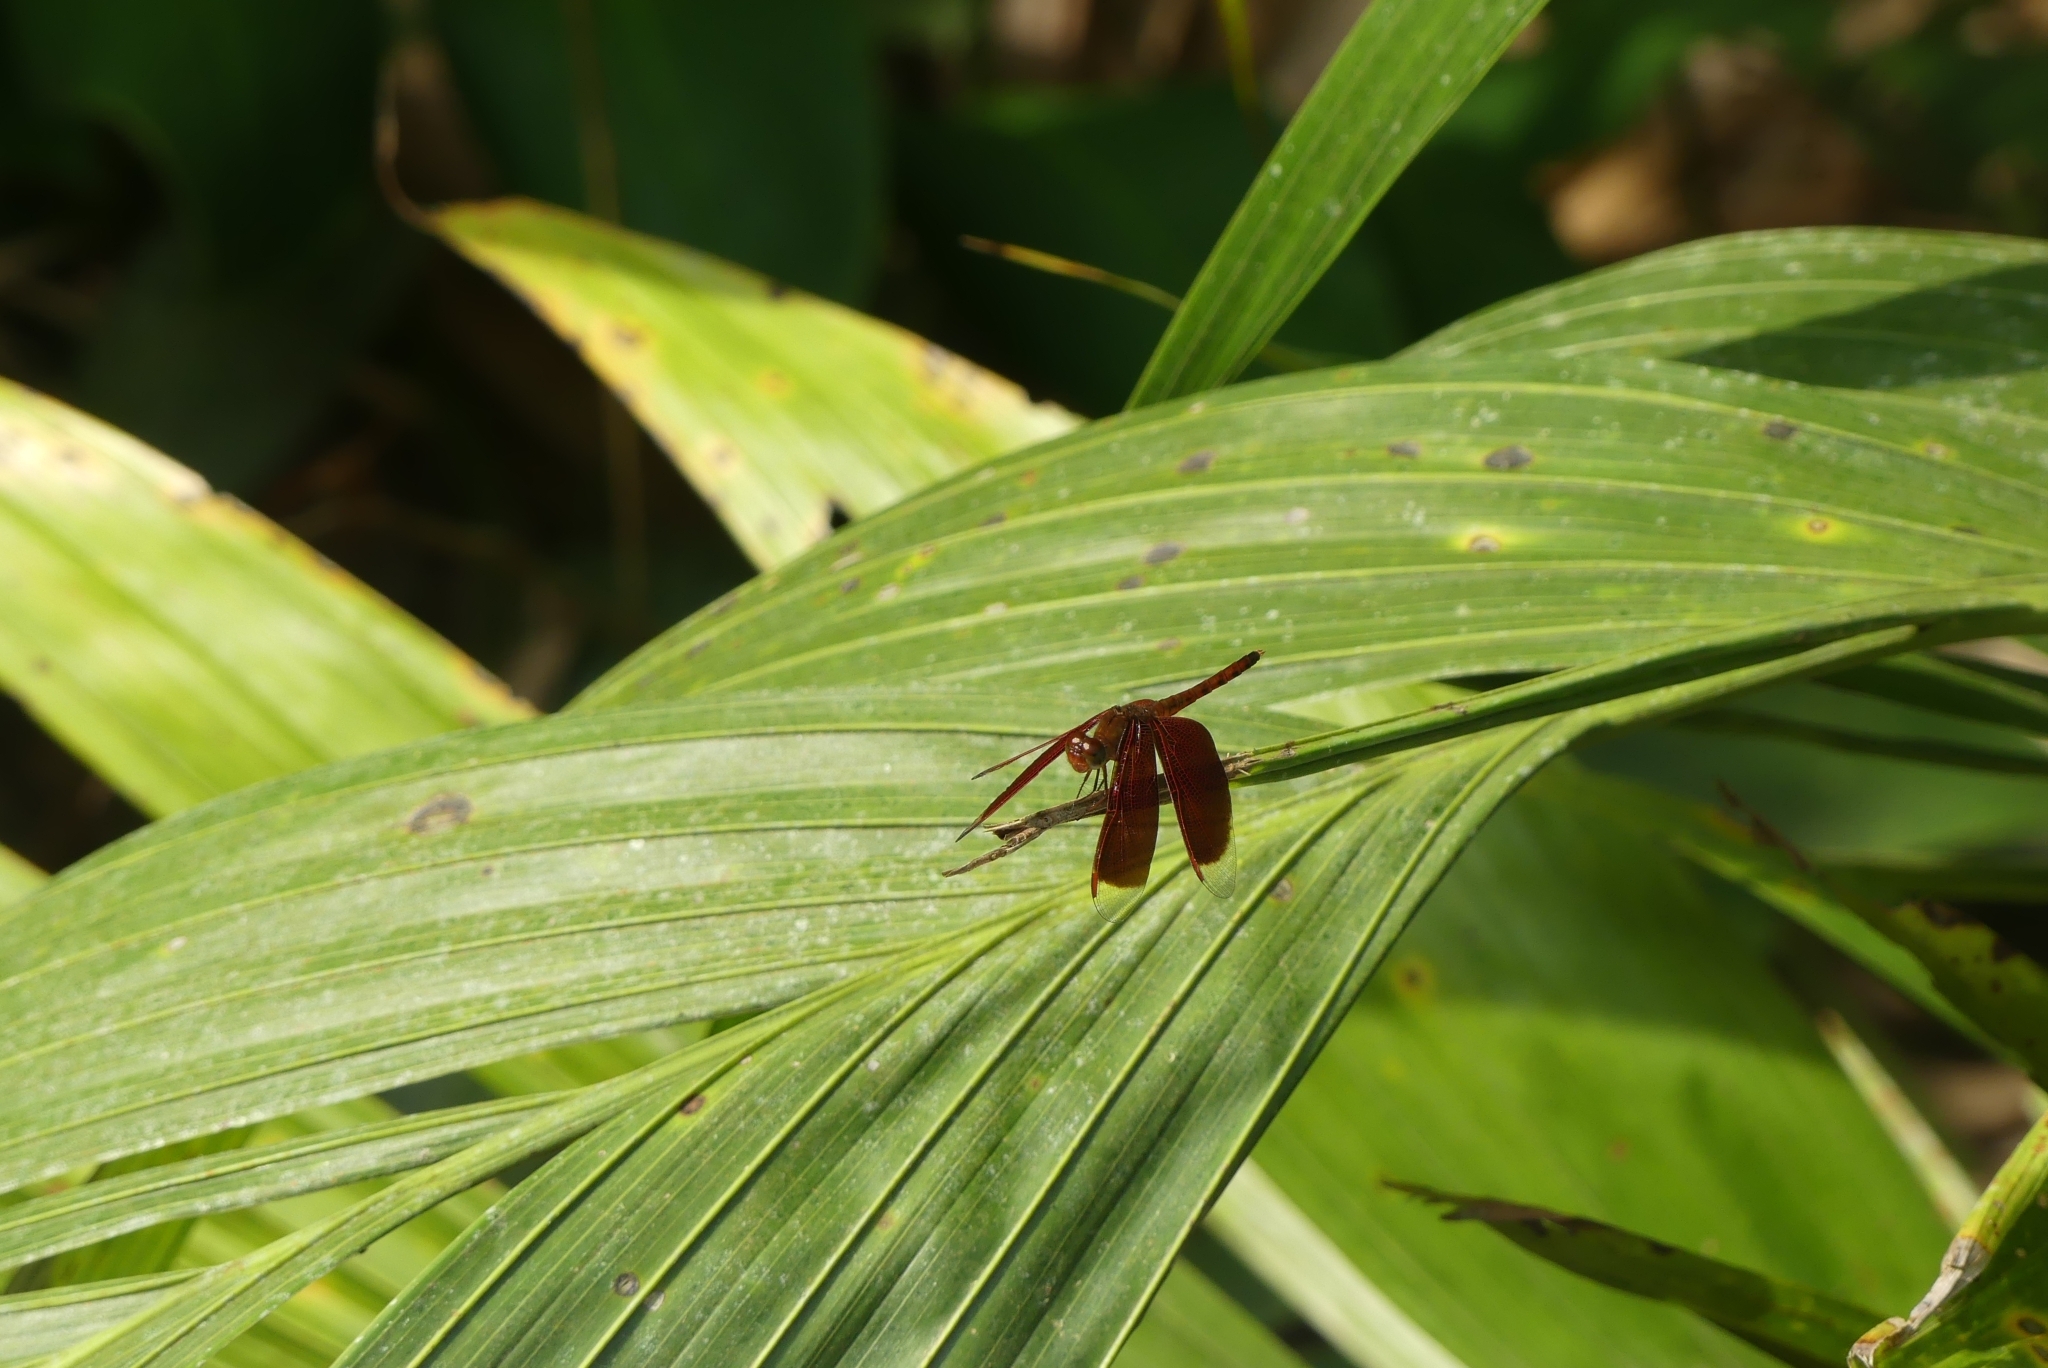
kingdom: Animalia
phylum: Arthropoda
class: Insecta
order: Odonata
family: Libellulidae
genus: Neurothemis
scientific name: Neurothemis fluctuans
